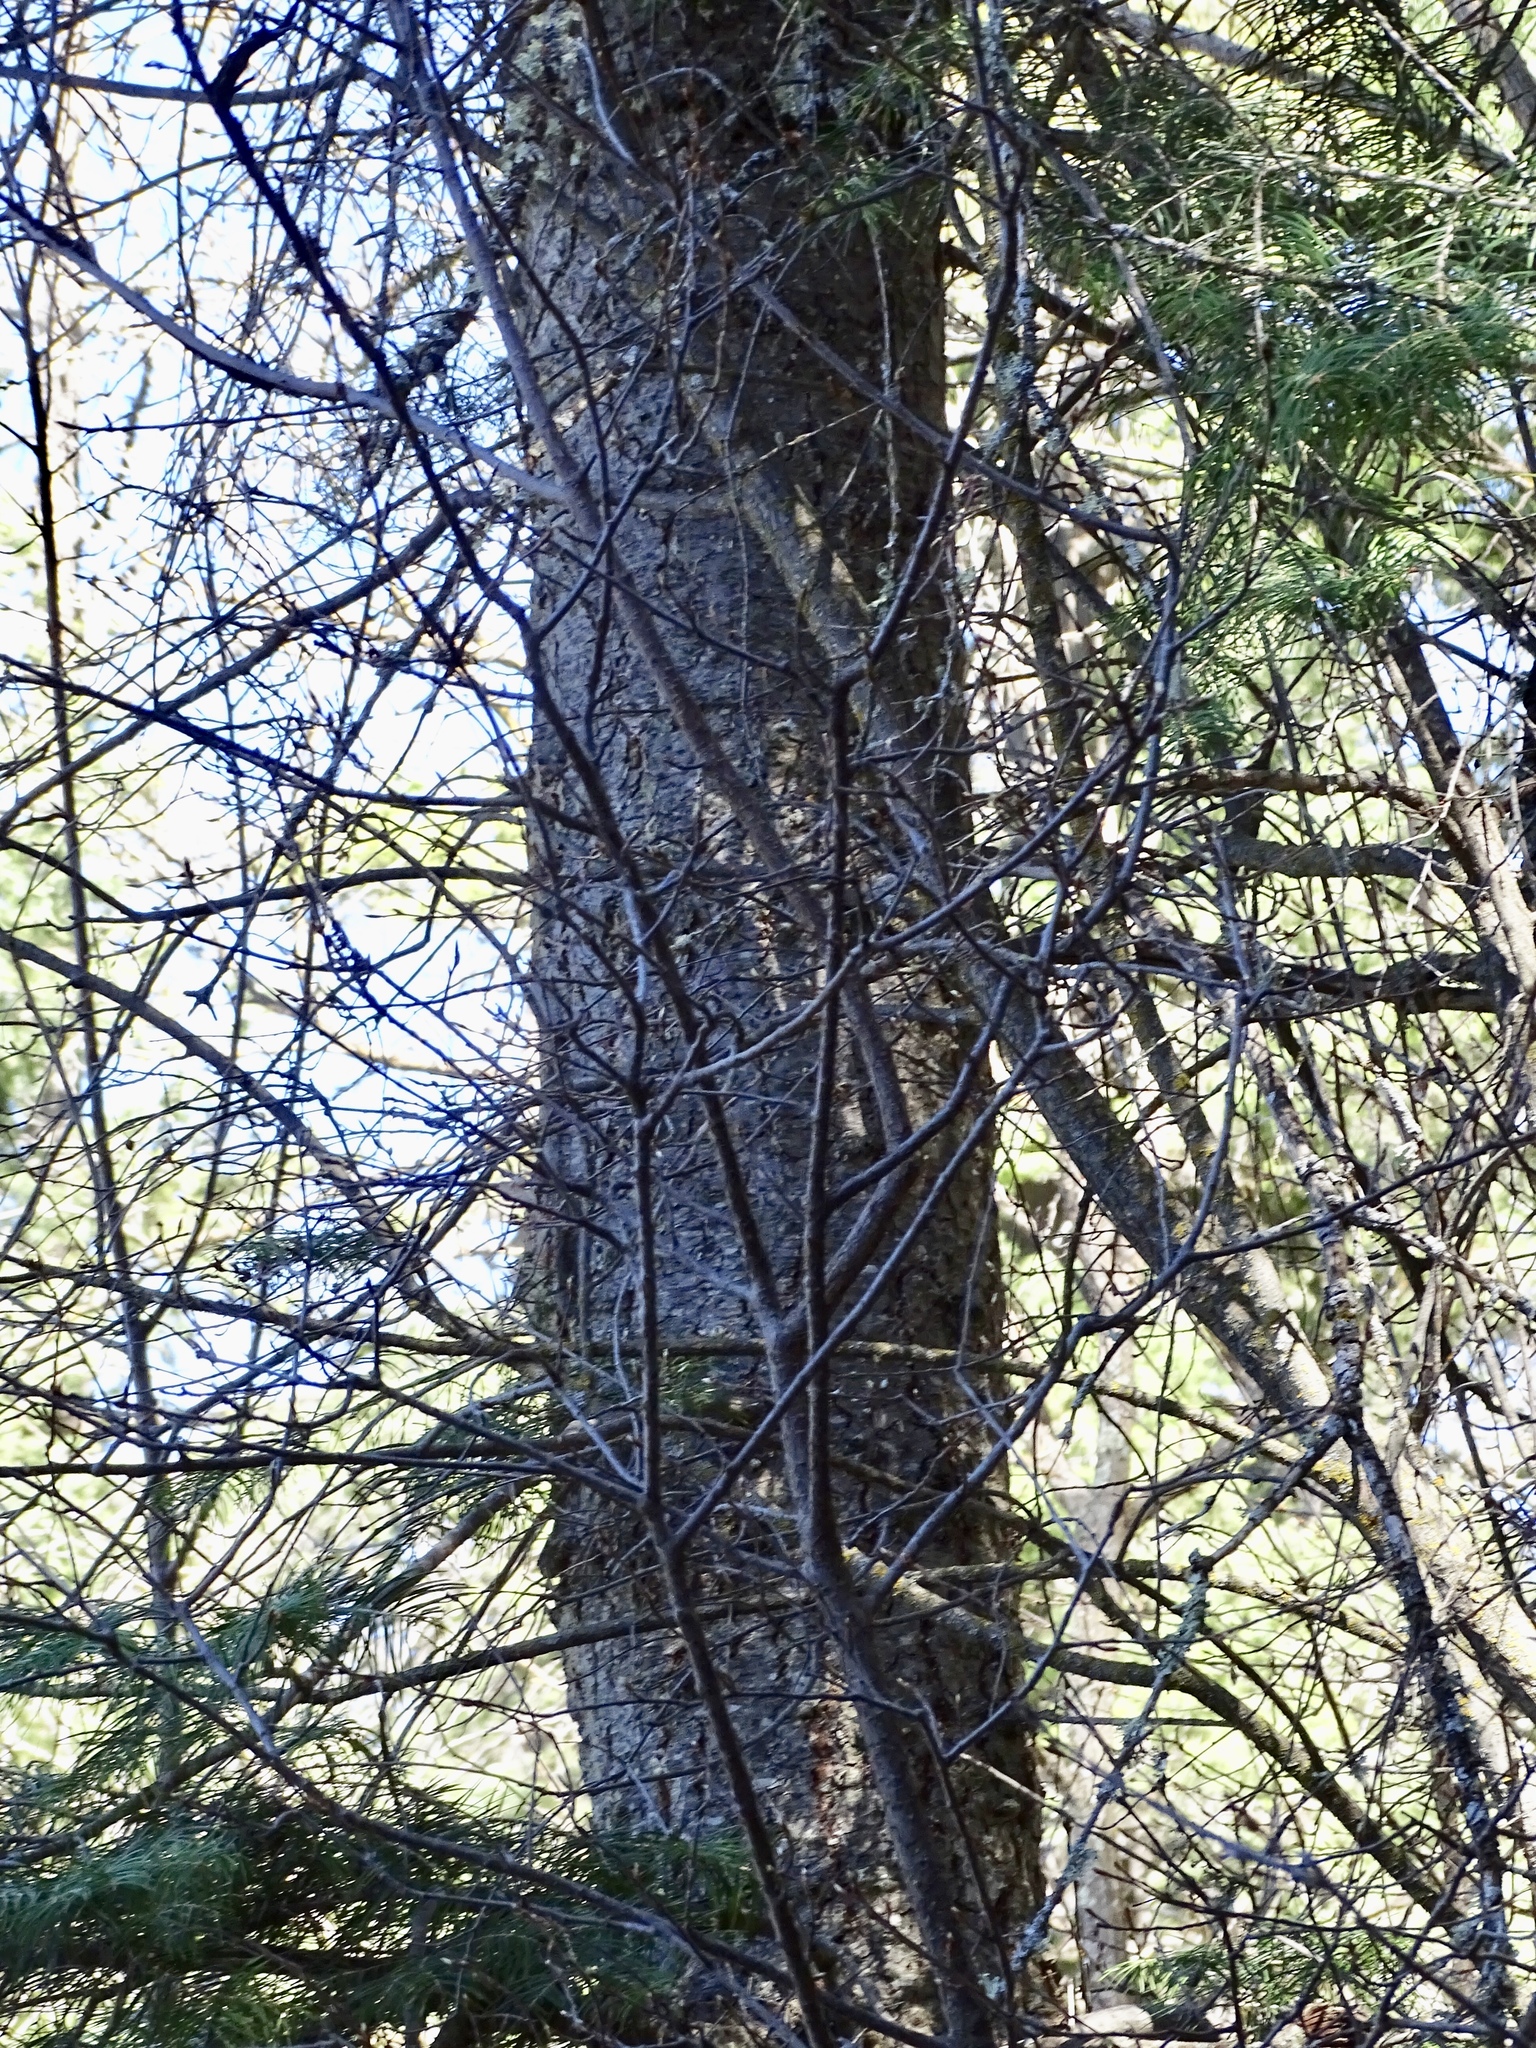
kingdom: Plantae
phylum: Tracheophyta
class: Pinopsida
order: Pinales
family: Pinaceae
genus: Abies
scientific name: Abies concolor
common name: Colorado fir
